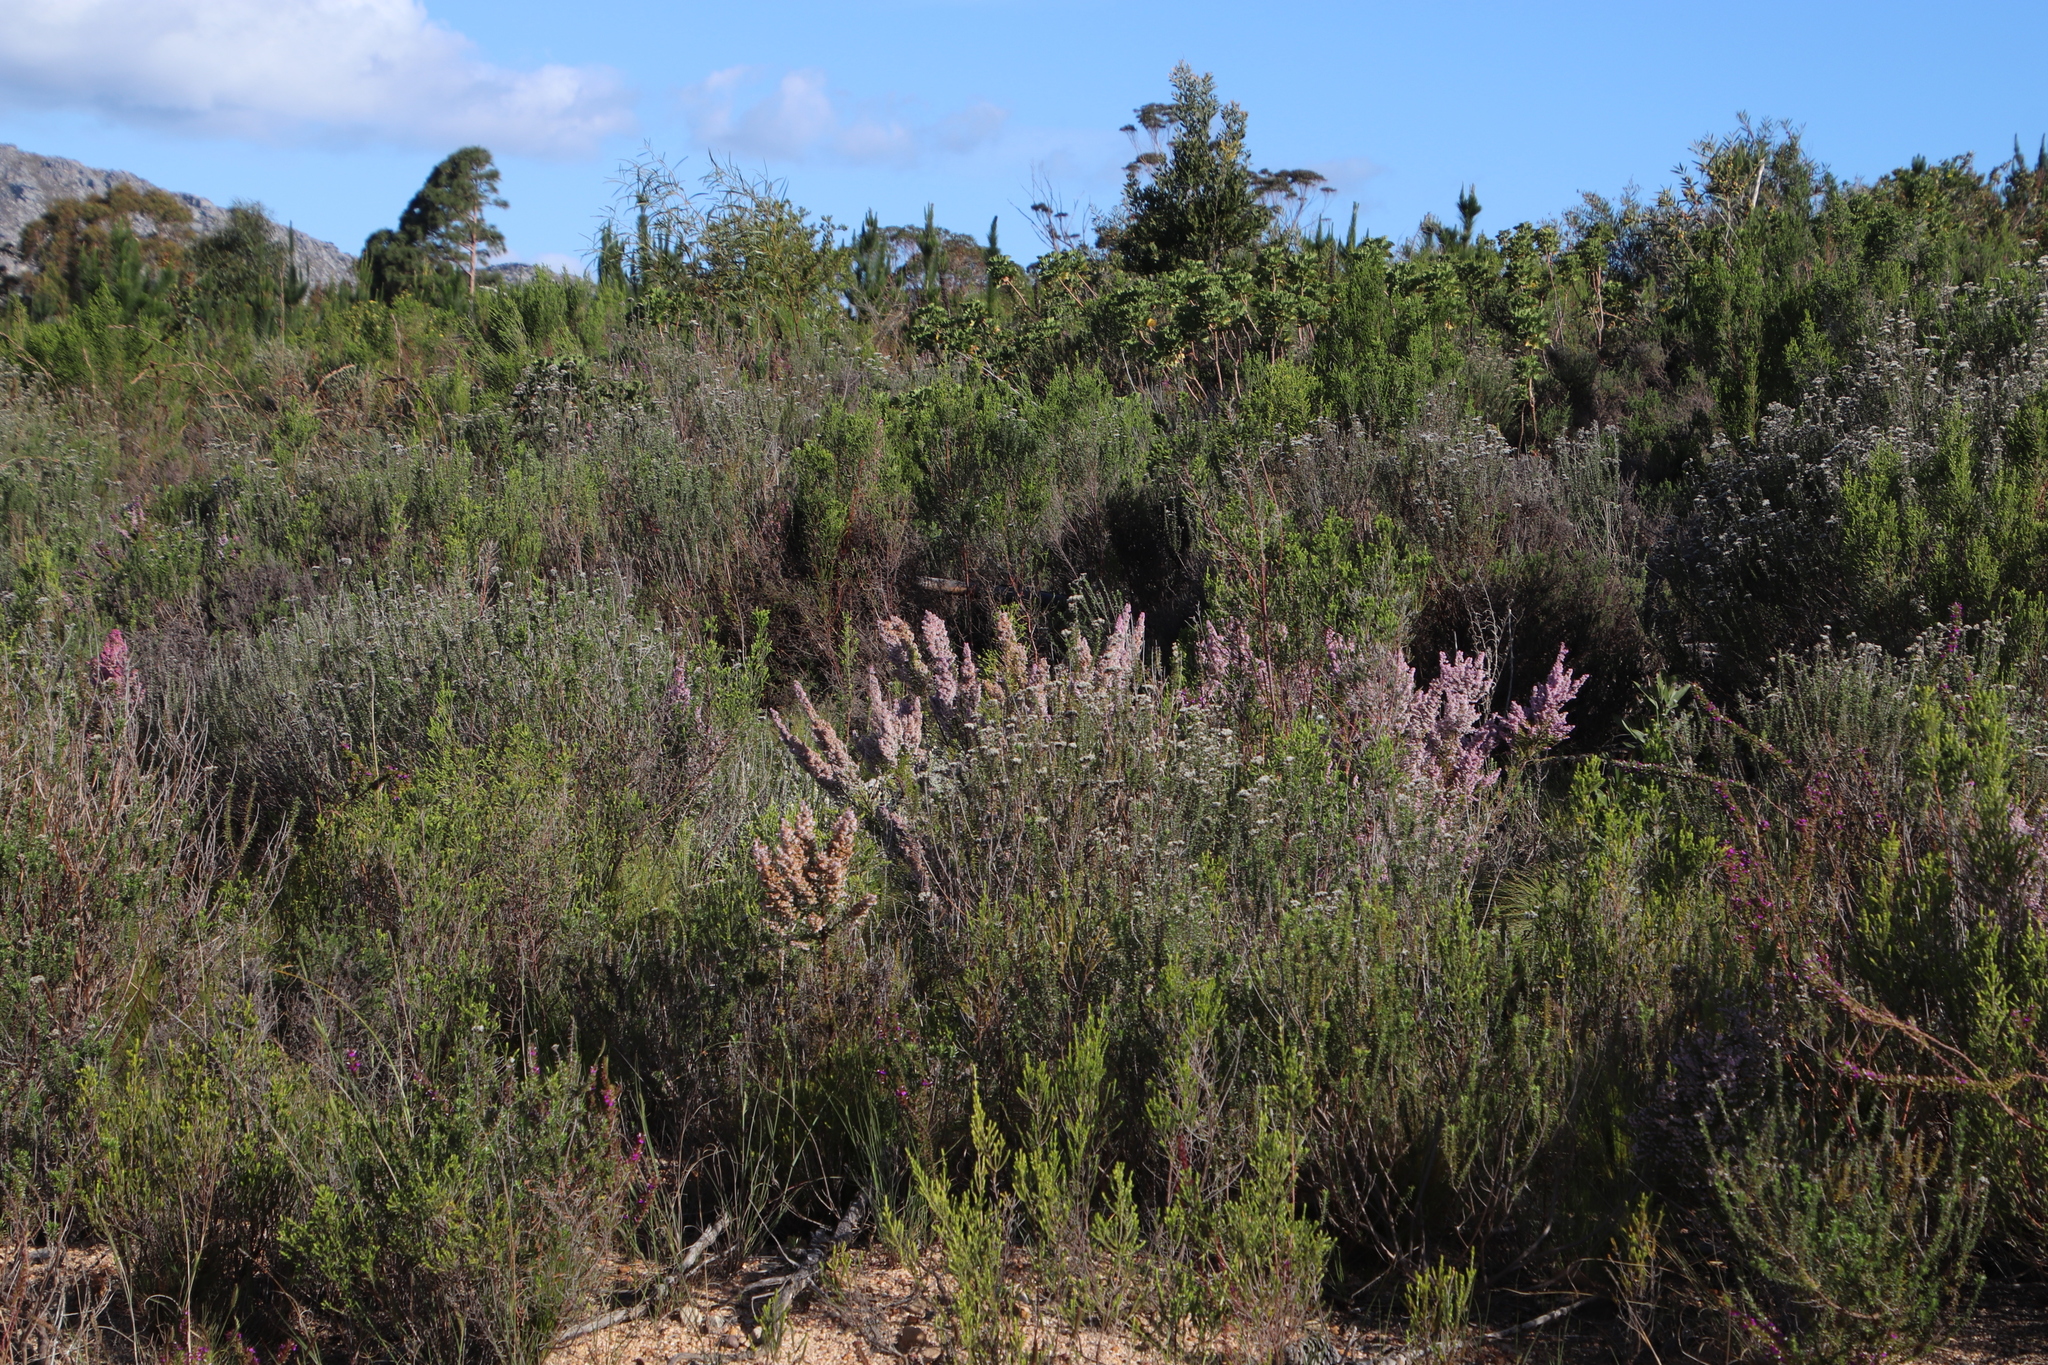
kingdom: Plantae
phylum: Tracheophyta
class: Magnoliopsida
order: Ericales
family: Ericaceae
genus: Erica
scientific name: Erica mauritanica
